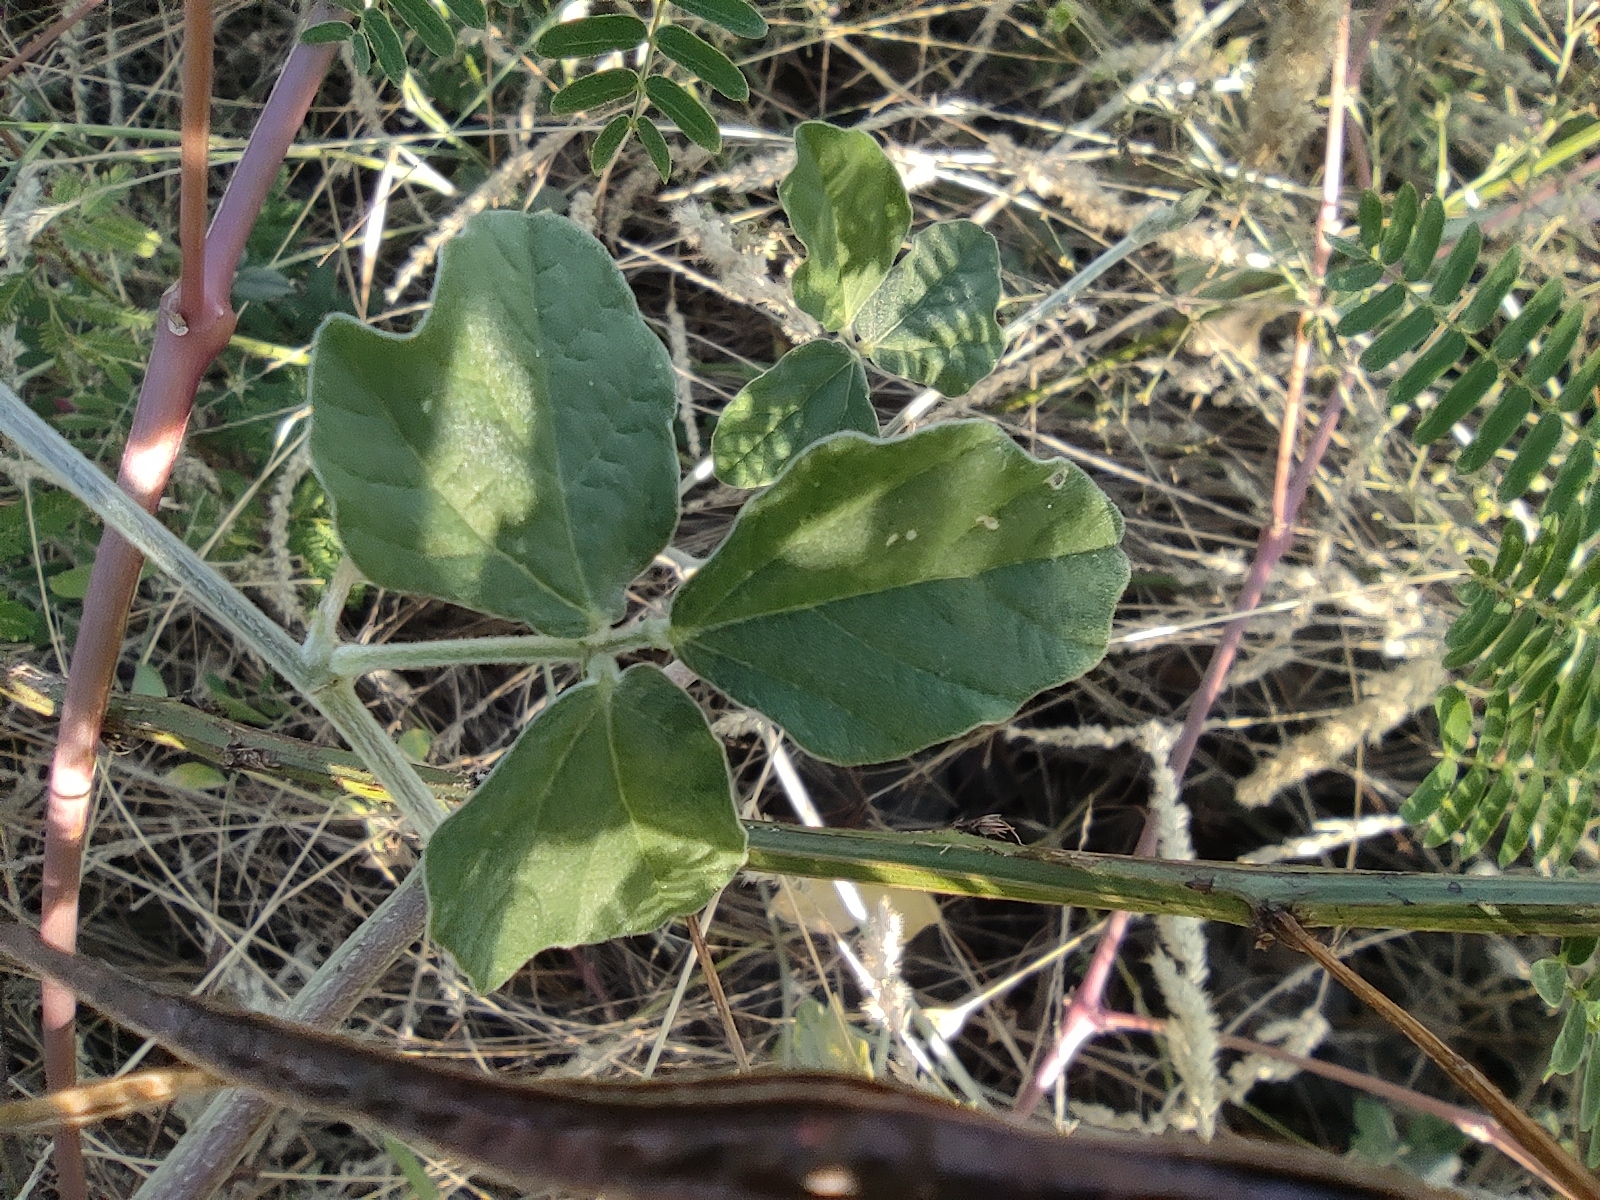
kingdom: Plantae
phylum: Tracheophyta
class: Magnoliopsida
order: Fabales
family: Fabaceae
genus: Macroptilium
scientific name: Macroptilium atropurpureum
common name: Purple bushbean
